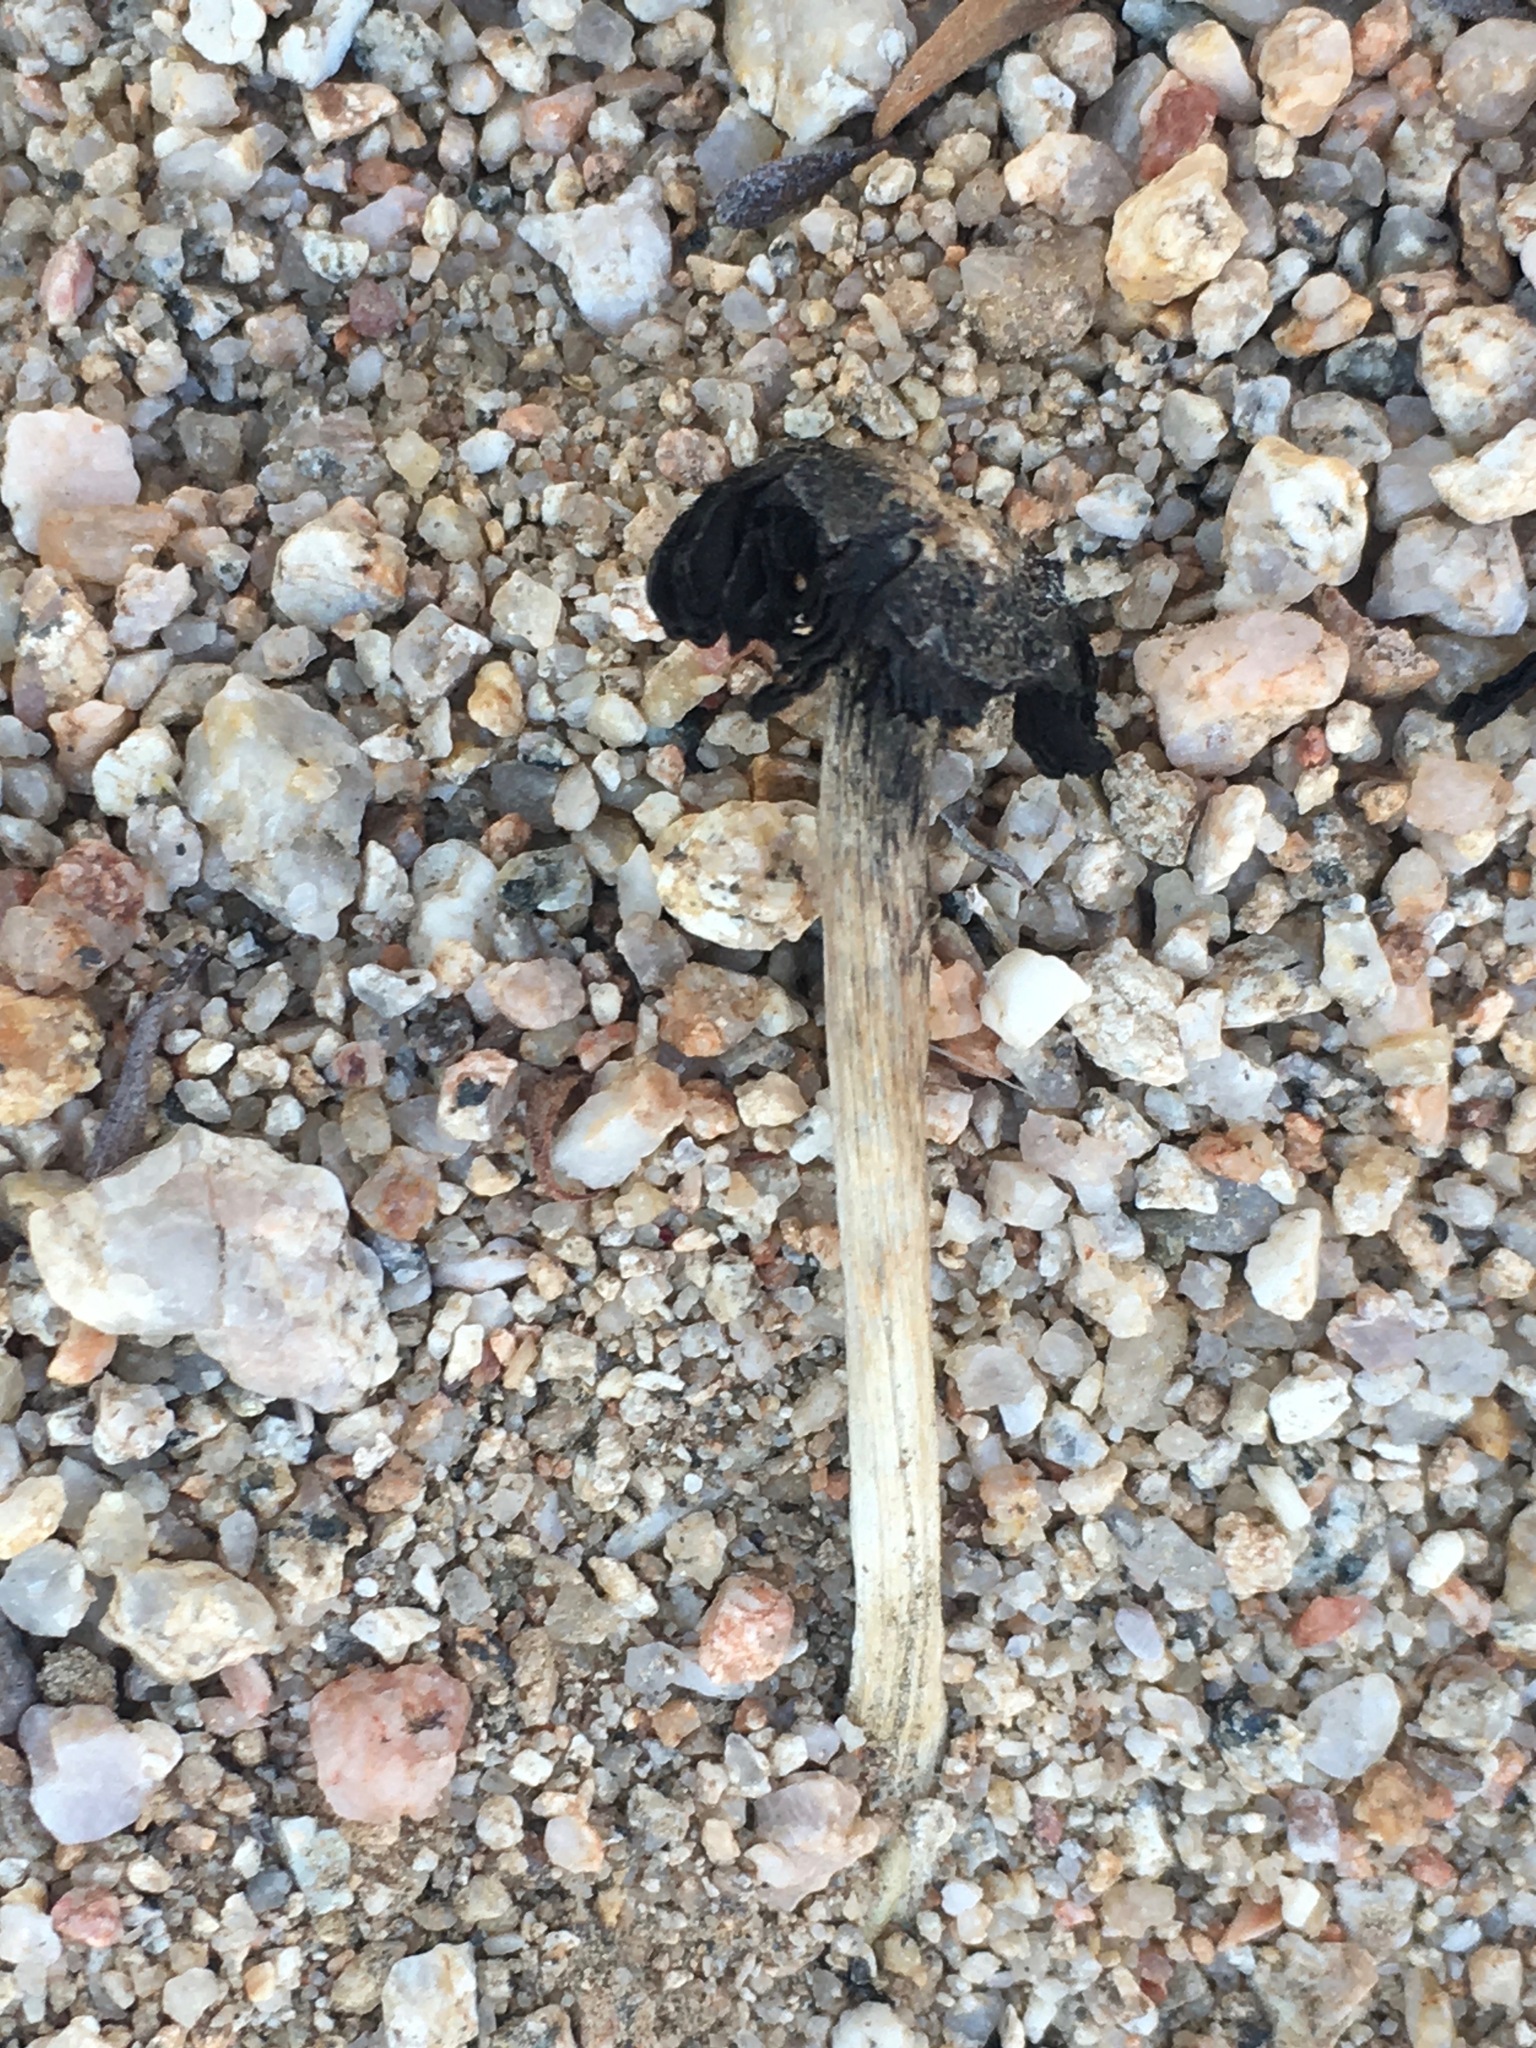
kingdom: Fungi
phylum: Basidiomycota
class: Agaricomycetes
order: Agaricales
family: Agaricaceae
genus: Montagnea
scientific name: Montagnea arenaria
